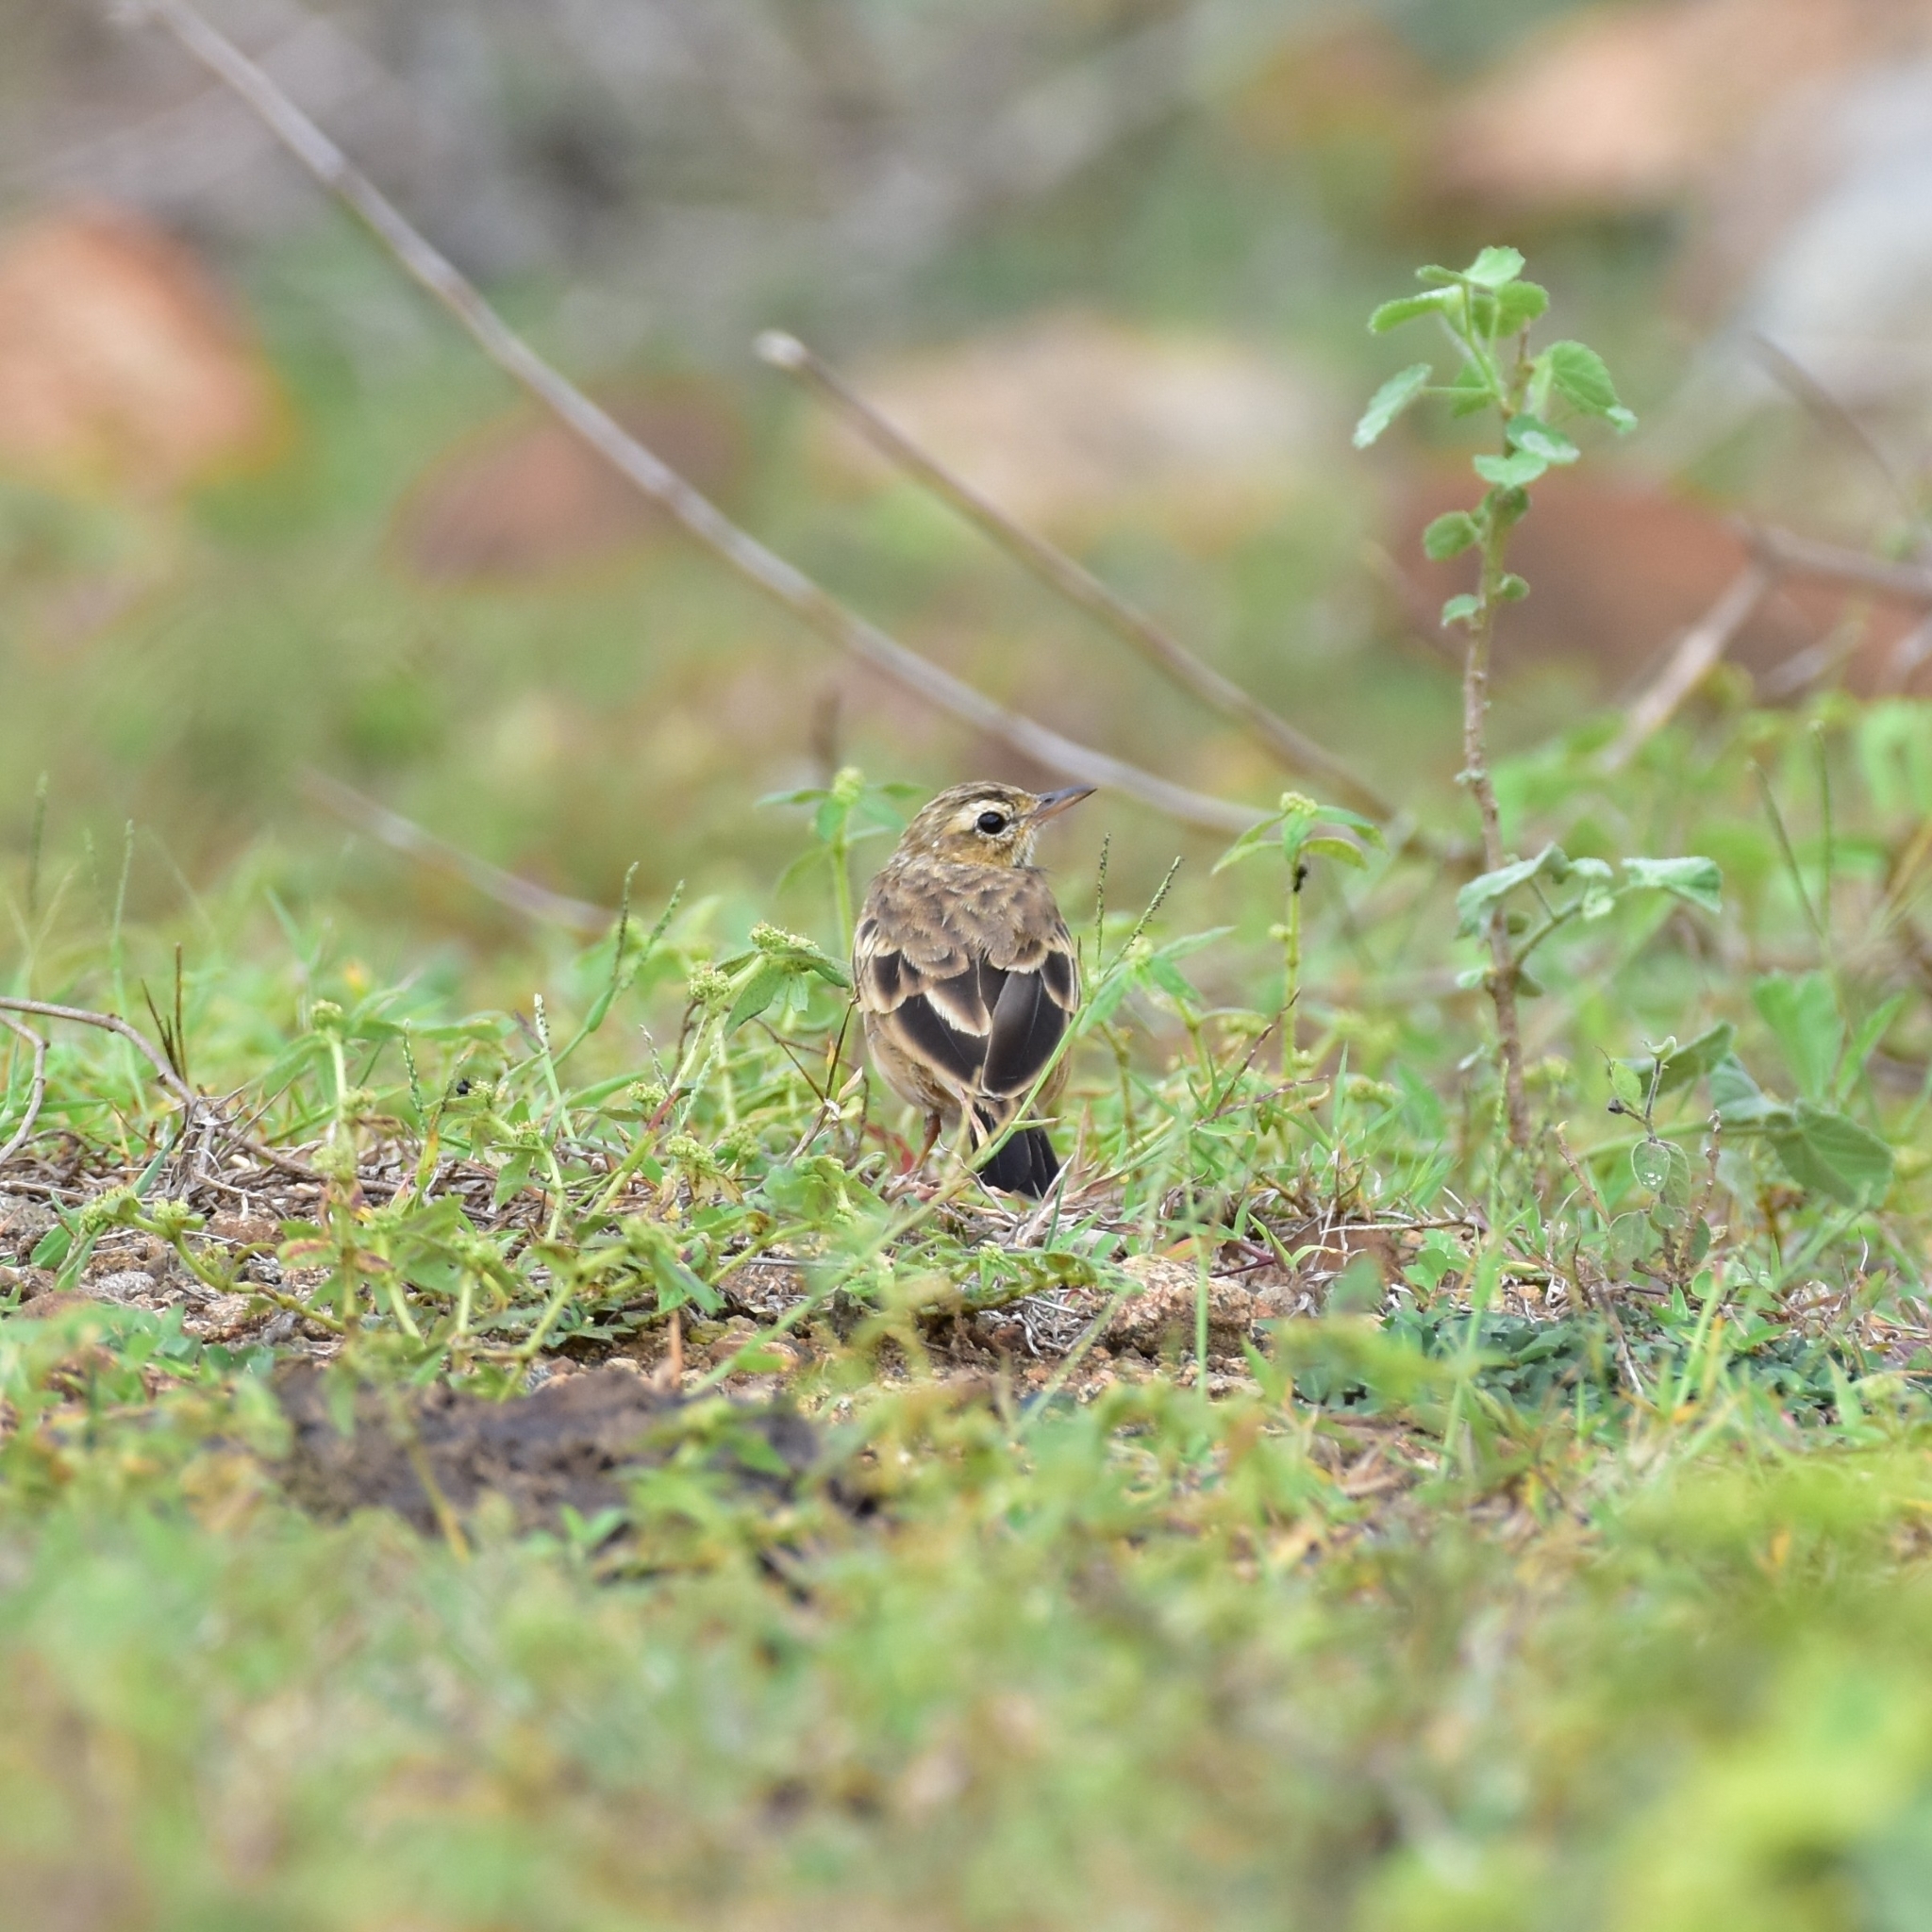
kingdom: Animalia
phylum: Chordata
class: Aves
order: Passeriformes
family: Motacillidae
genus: Anthus
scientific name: Anthus rufulus
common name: Paddyfield pipit
